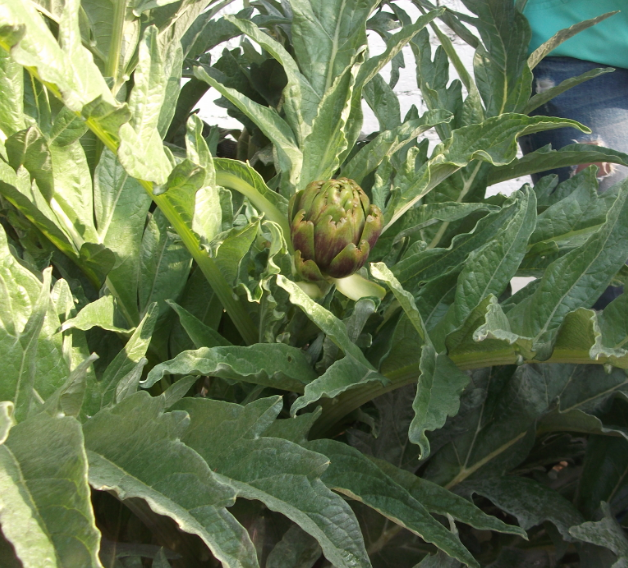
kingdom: Plantae
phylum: Tracheophyta
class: Magnoliopsida
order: Asterales
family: Asteraceae
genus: Cynara
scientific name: Cynara scolymus
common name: Globe artichoke
